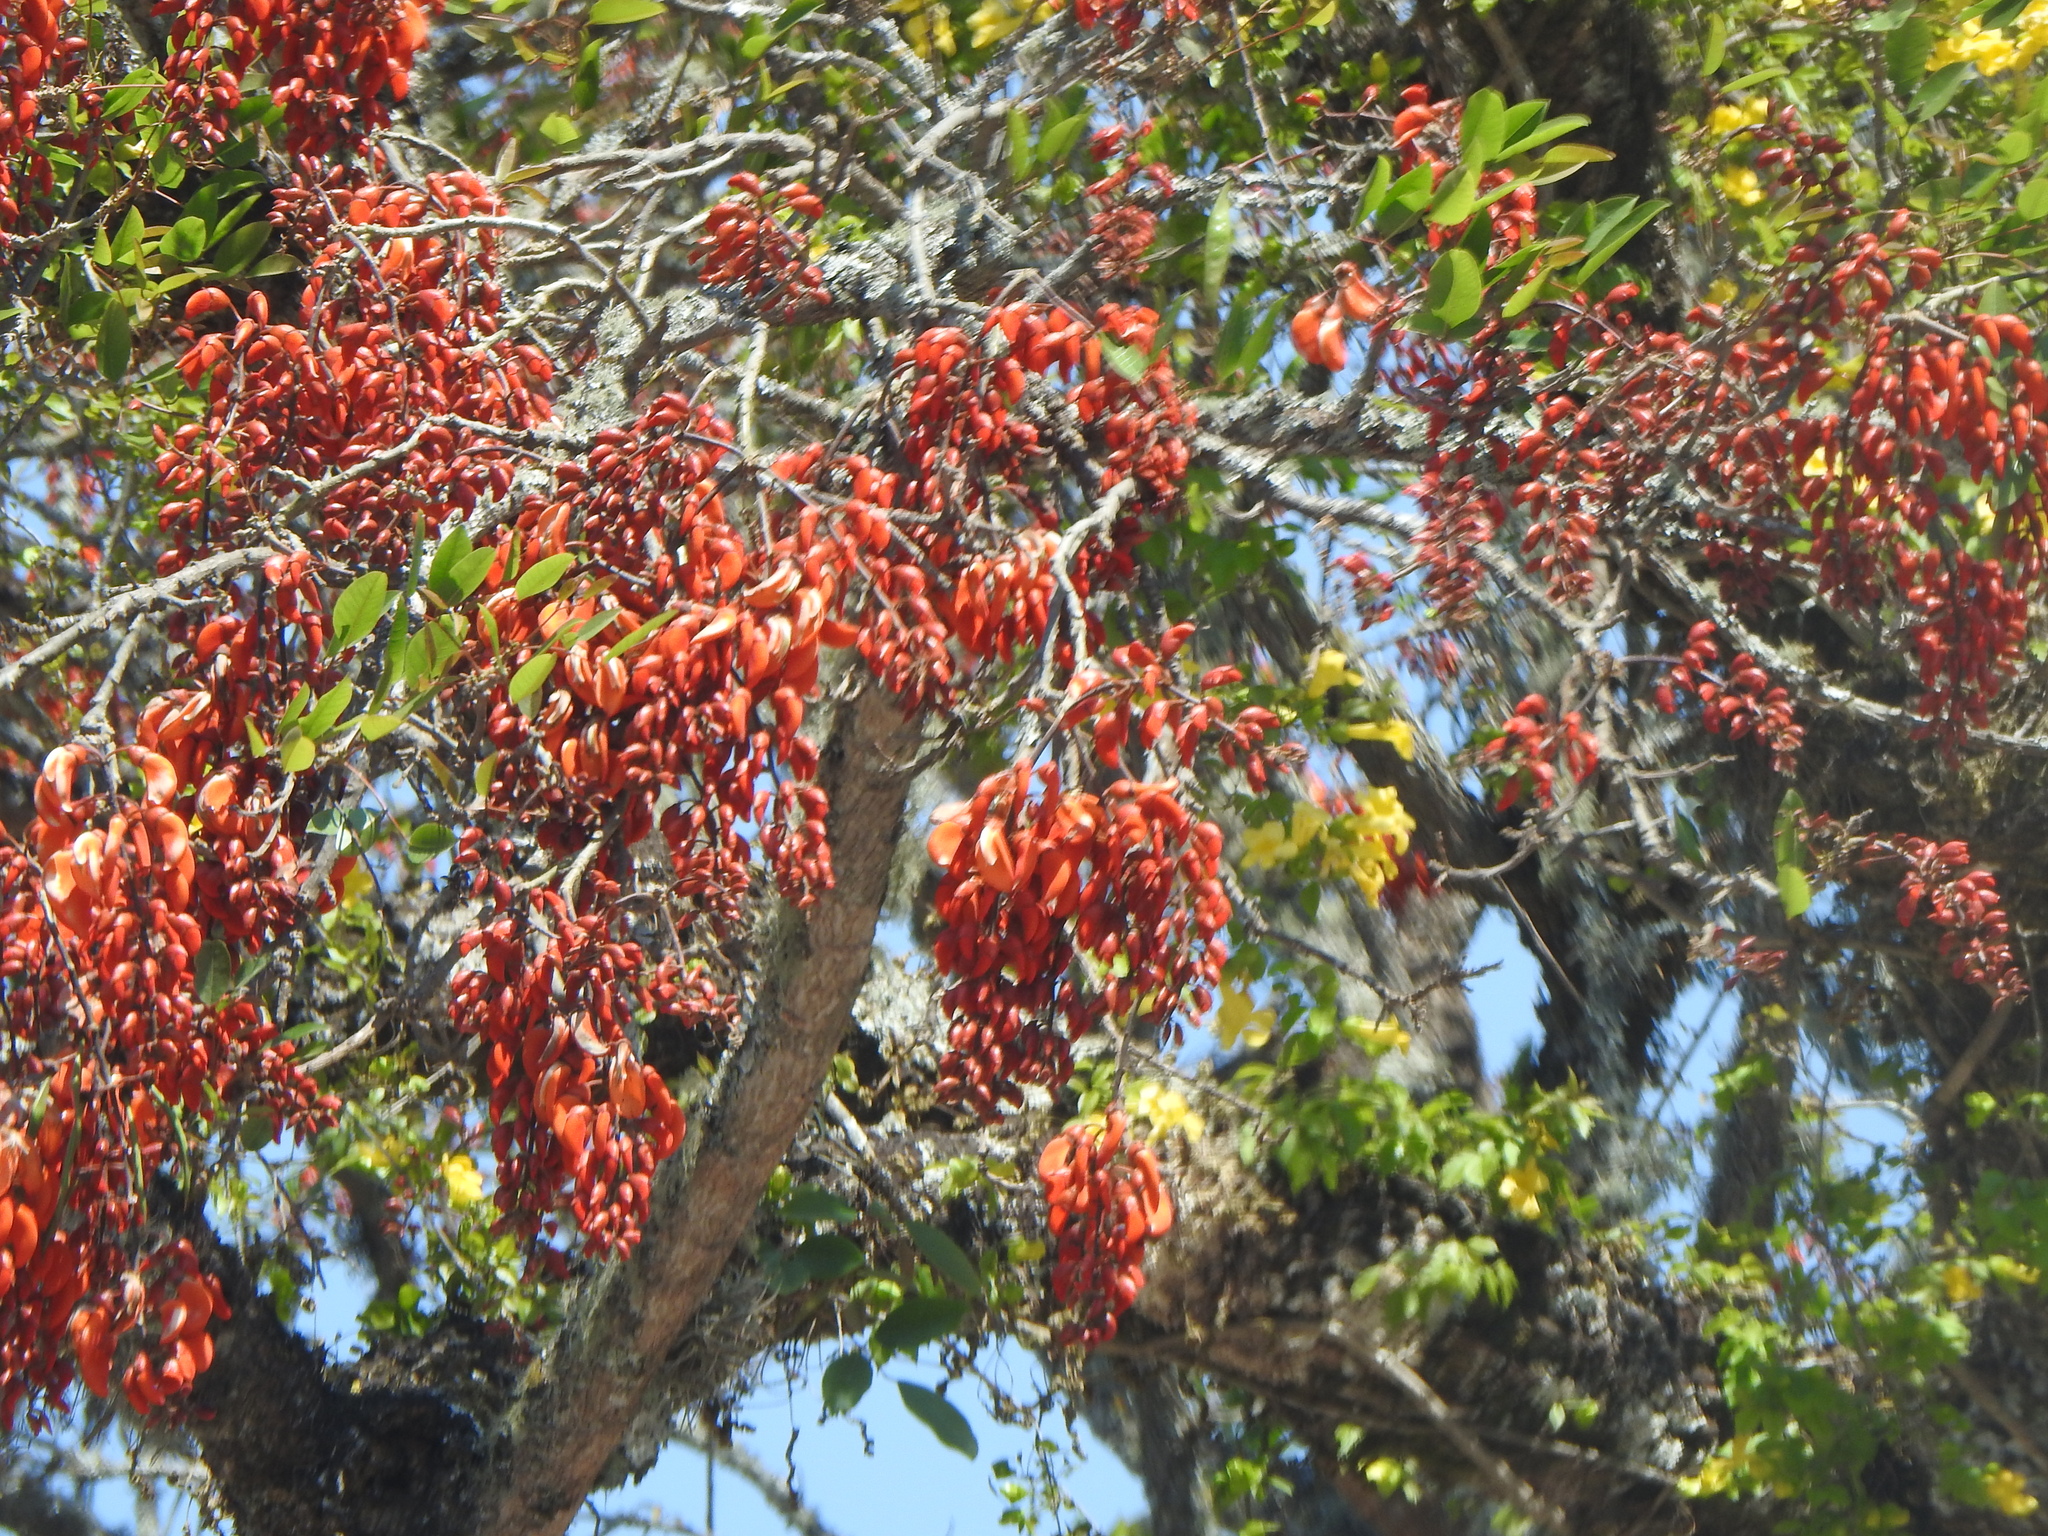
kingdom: Plantae
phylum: Tracheophyta
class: Magnoliopsida
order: Fabales
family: Fabaceae
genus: Erythrina
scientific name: Erythrina falcata
